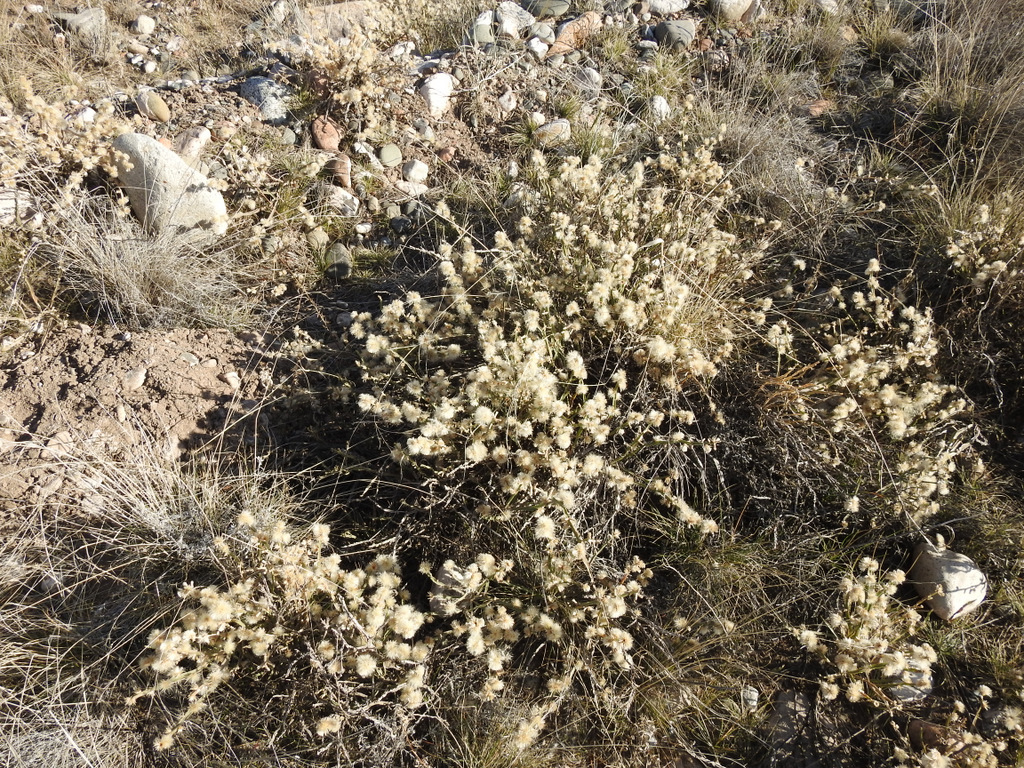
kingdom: Plantae
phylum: Tracheophyta
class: Magnoliopsida
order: Asterales
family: Asteraceae
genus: Baccharis
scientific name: Baccharis trimera
